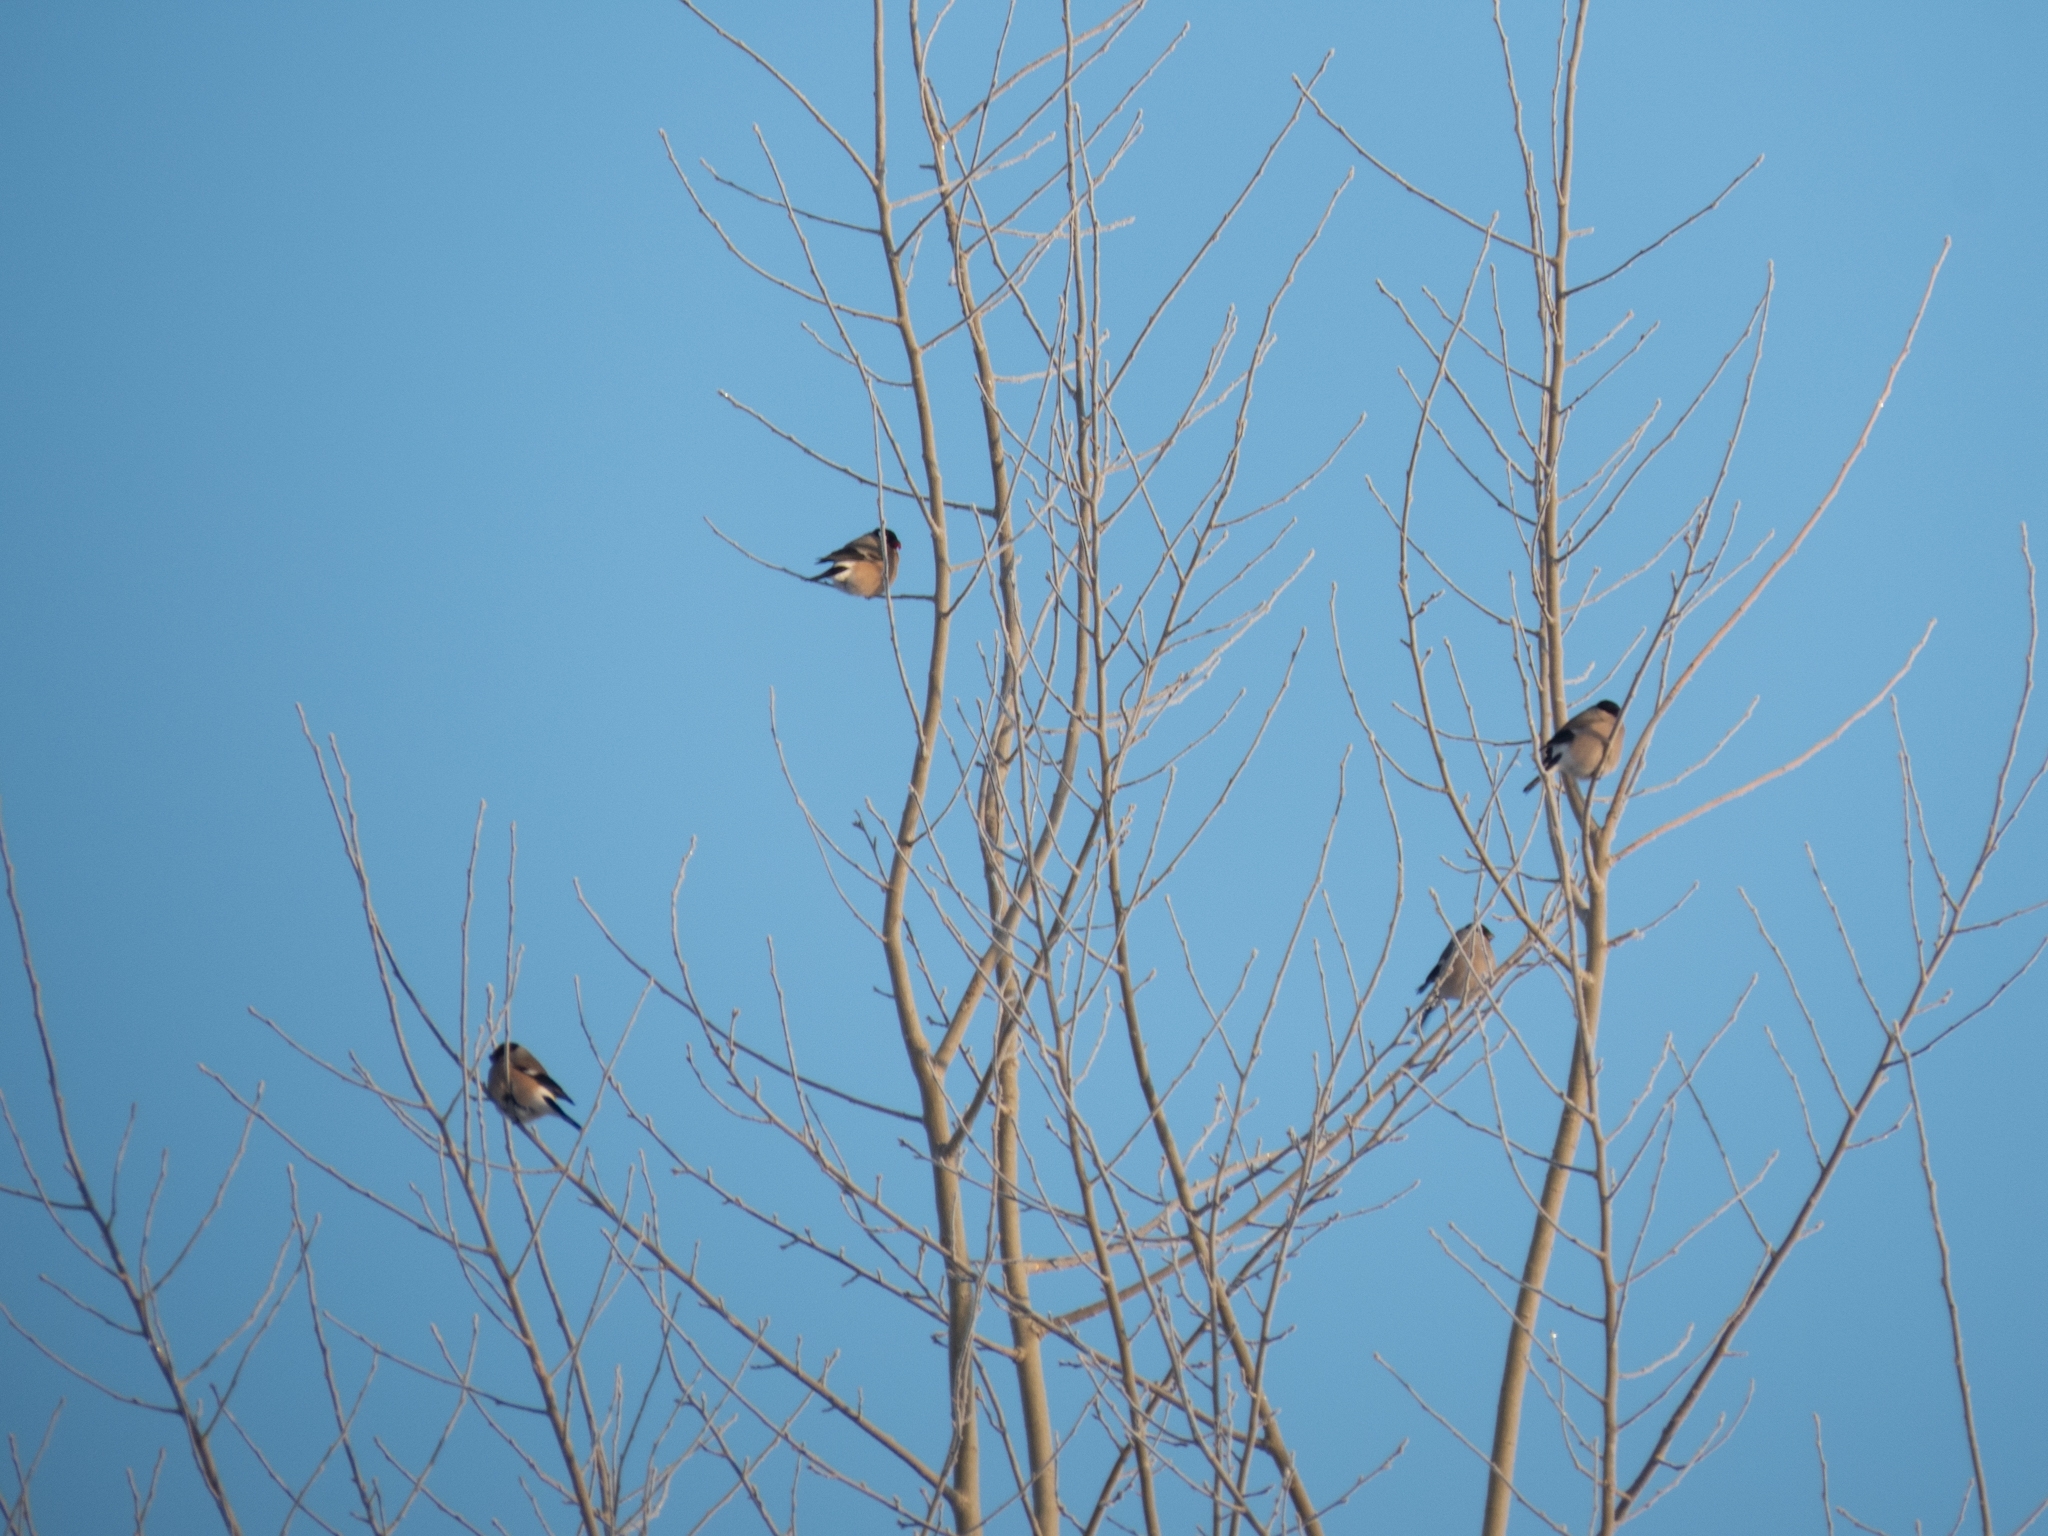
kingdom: Animalia
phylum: Chordata
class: Aves
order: Passeriformes
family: Fringillidae
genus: Pyrrhula
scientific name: Pyrrhula pyrrhula
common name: Eurasian bullfinch
